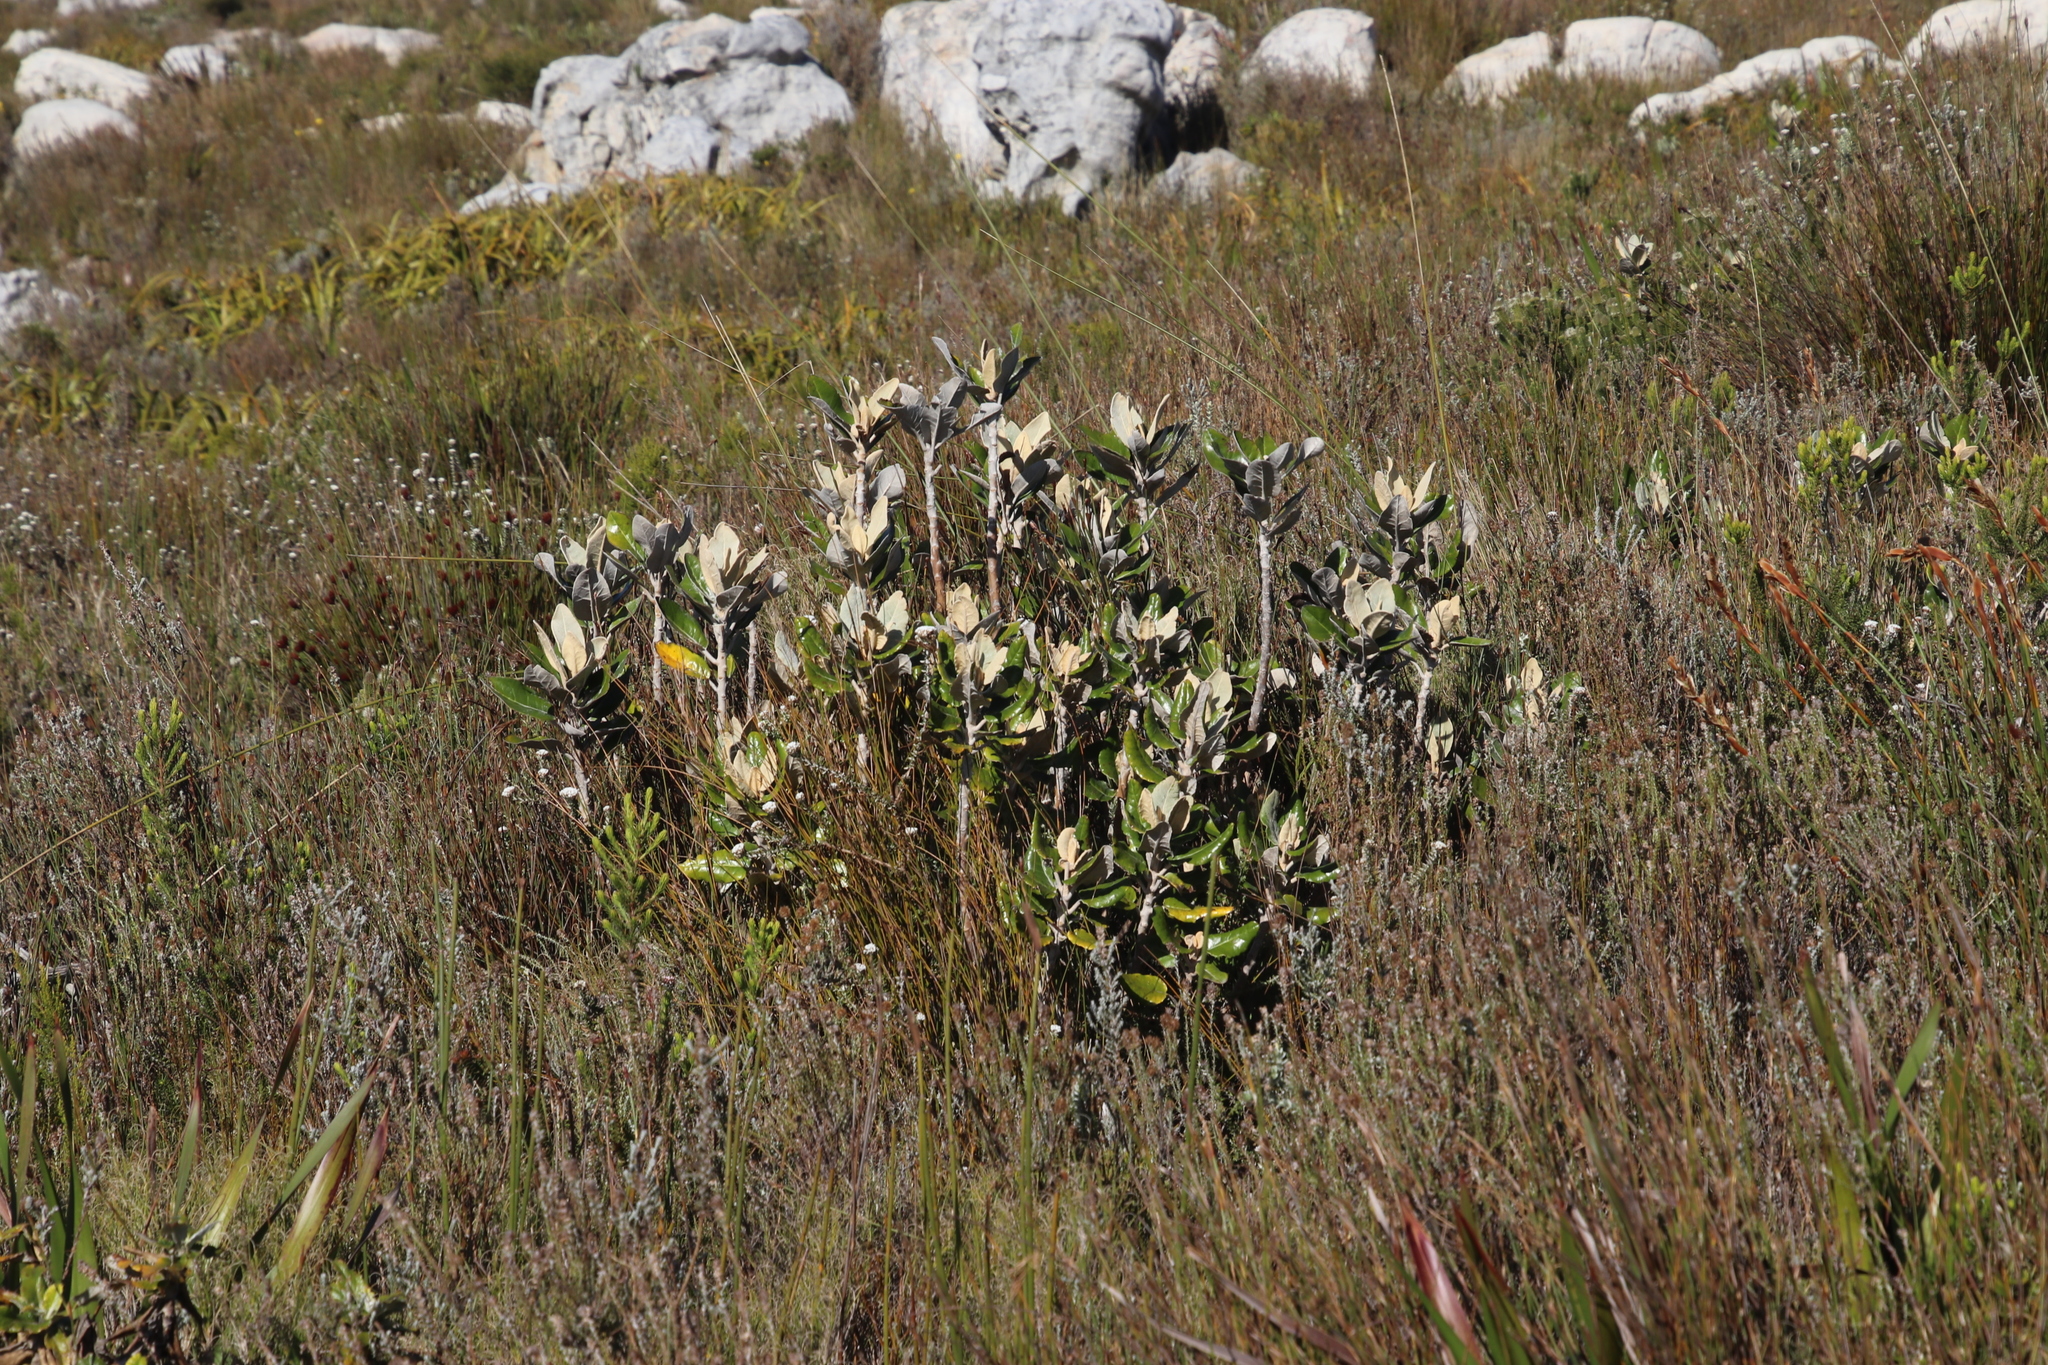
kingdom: Plantae
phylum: Tracheophyta
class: Magnoliopsida
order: Asterales
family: Asteraceae
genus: Capelio
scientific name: Capelio tabularis
